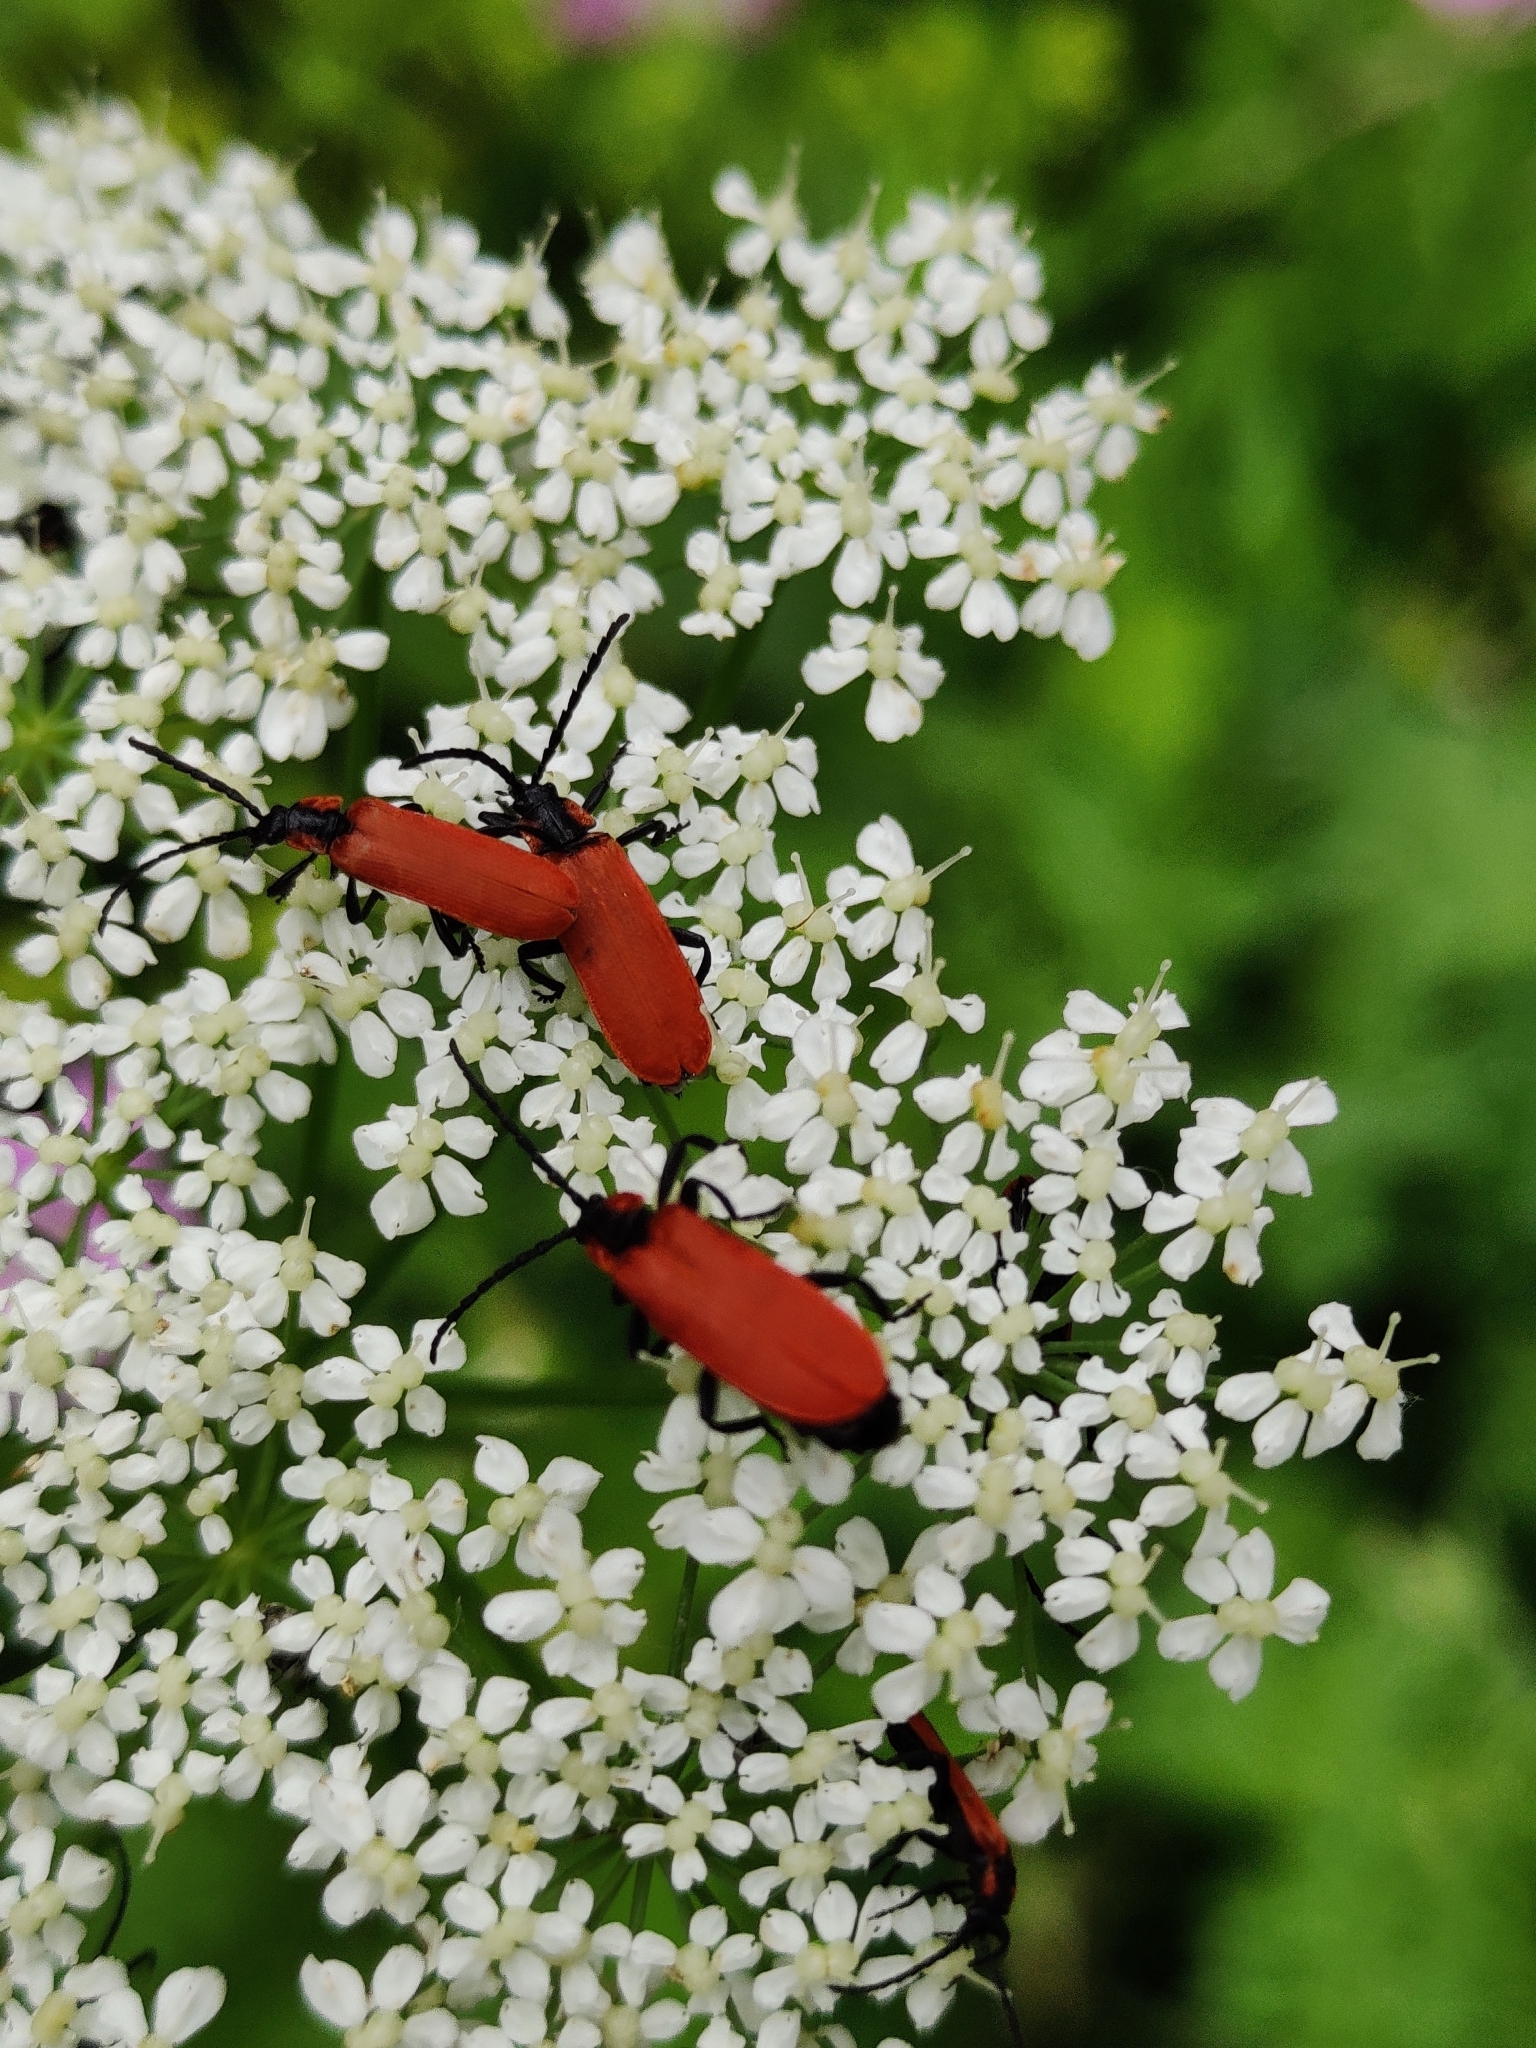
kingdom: Animalia
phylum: Arthropoda
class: Insecta
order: Coleoptera
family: Lycidae
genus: Lygistopterus
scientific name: Lygistopterus sanguineus
